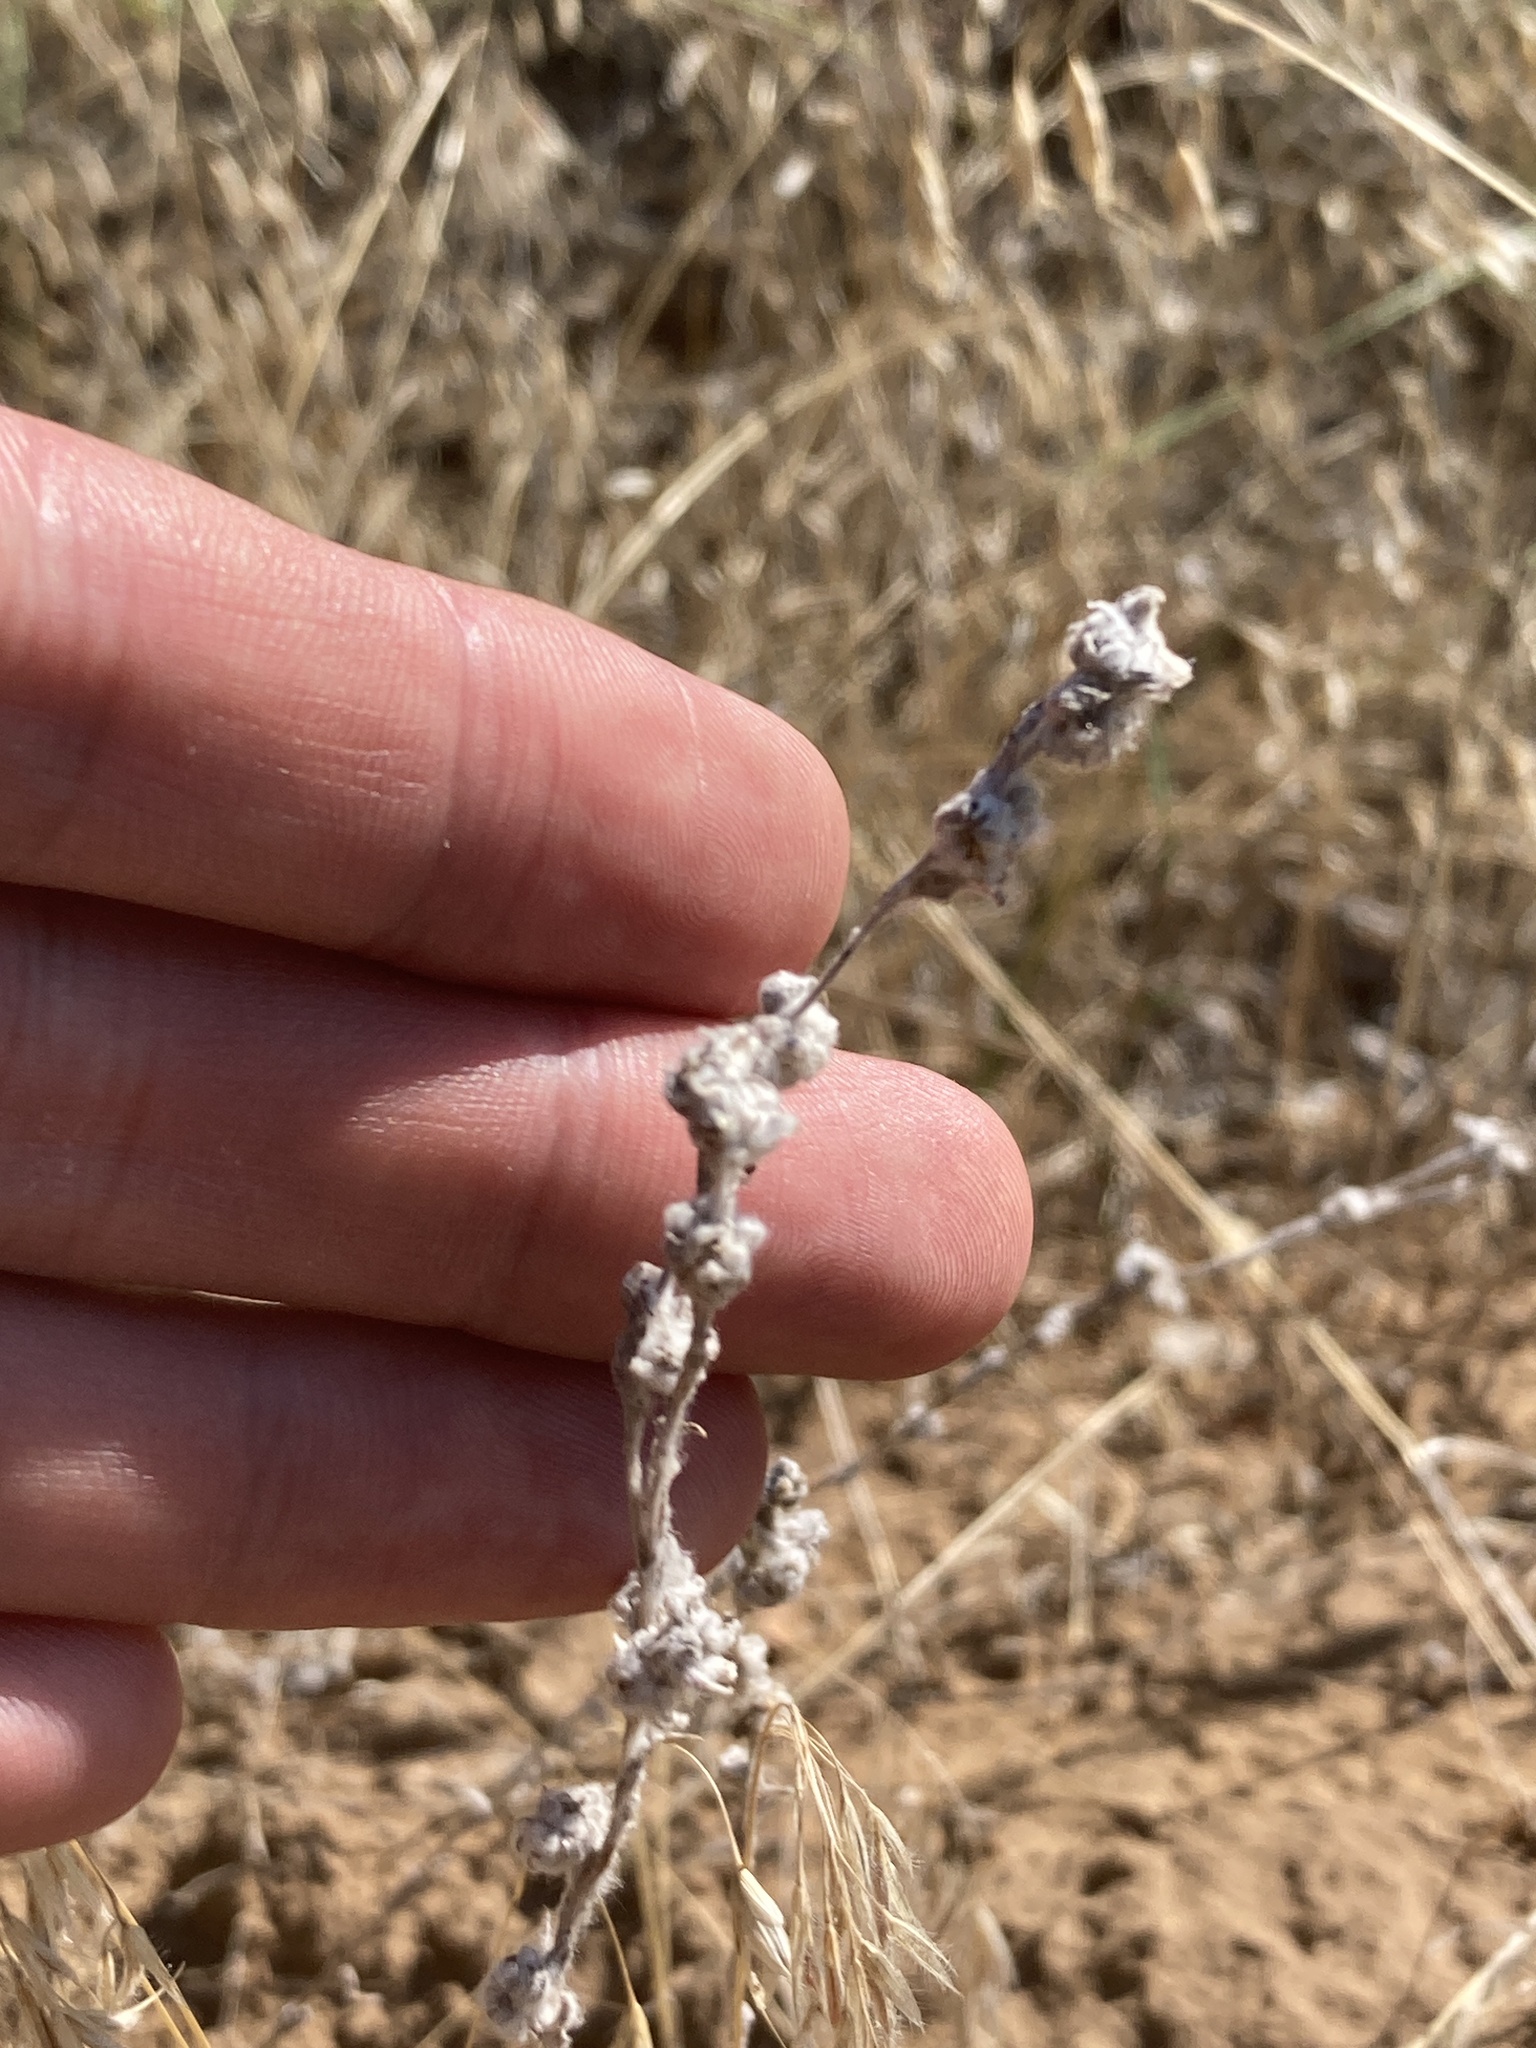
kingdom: Plantae
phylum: Tracheophyta
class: Magnoliopsida
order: Asterales
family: Asteraceae
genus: Filago
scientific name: Filago arvensis
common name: Field cudweed
